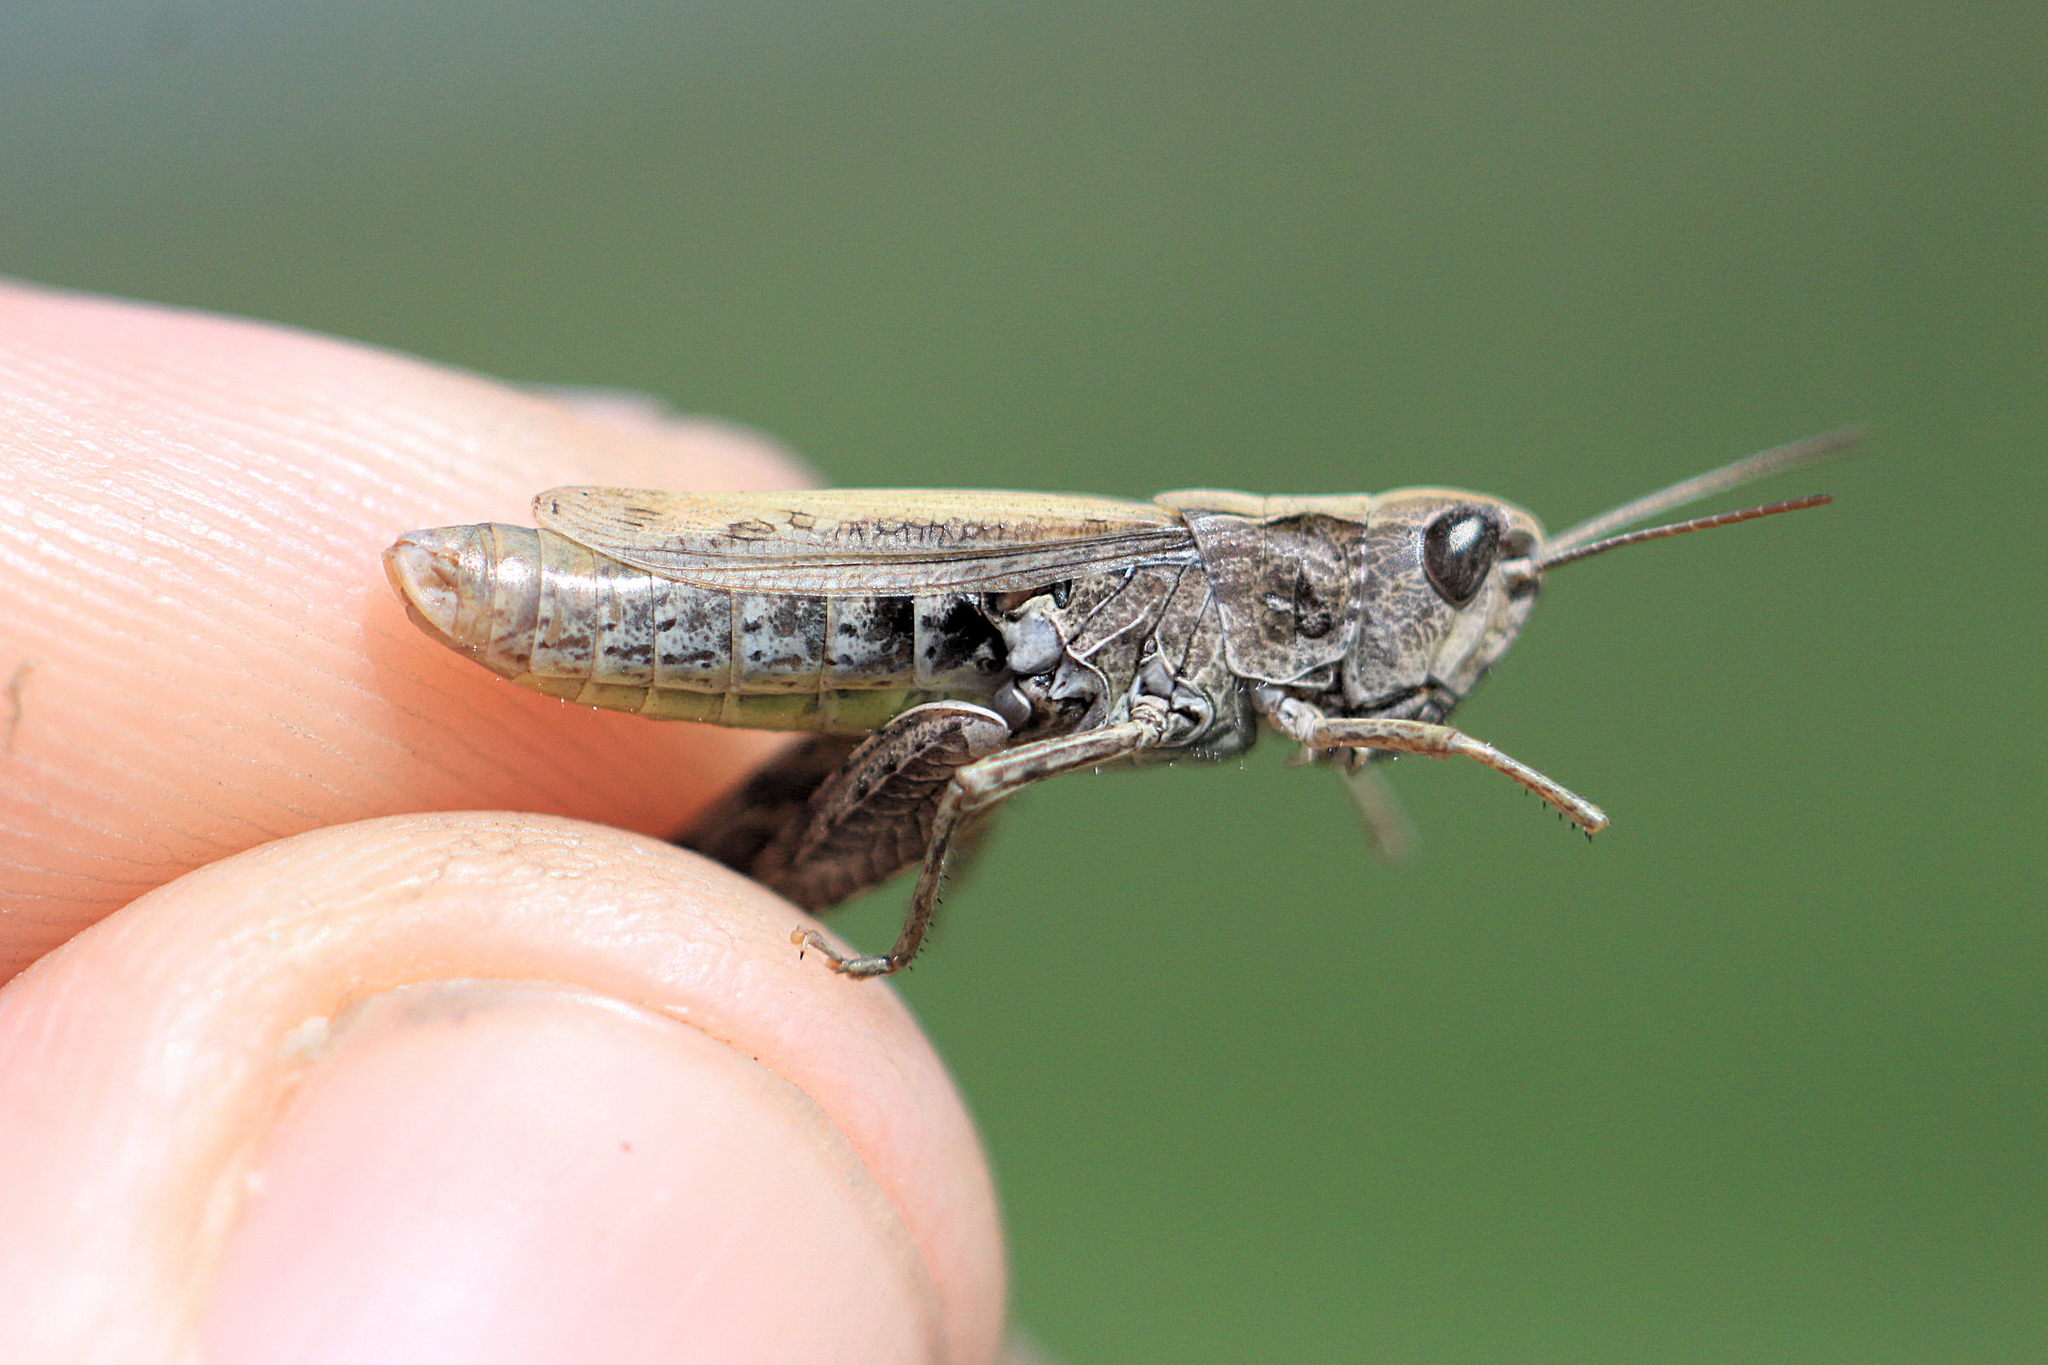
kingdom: Animalia
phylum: Arthropoda
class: Insecta
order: Orthoptera
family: Acrididae
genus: Chorthippus
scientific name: Chorthippus apricarius
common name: Upland field grasshopper
